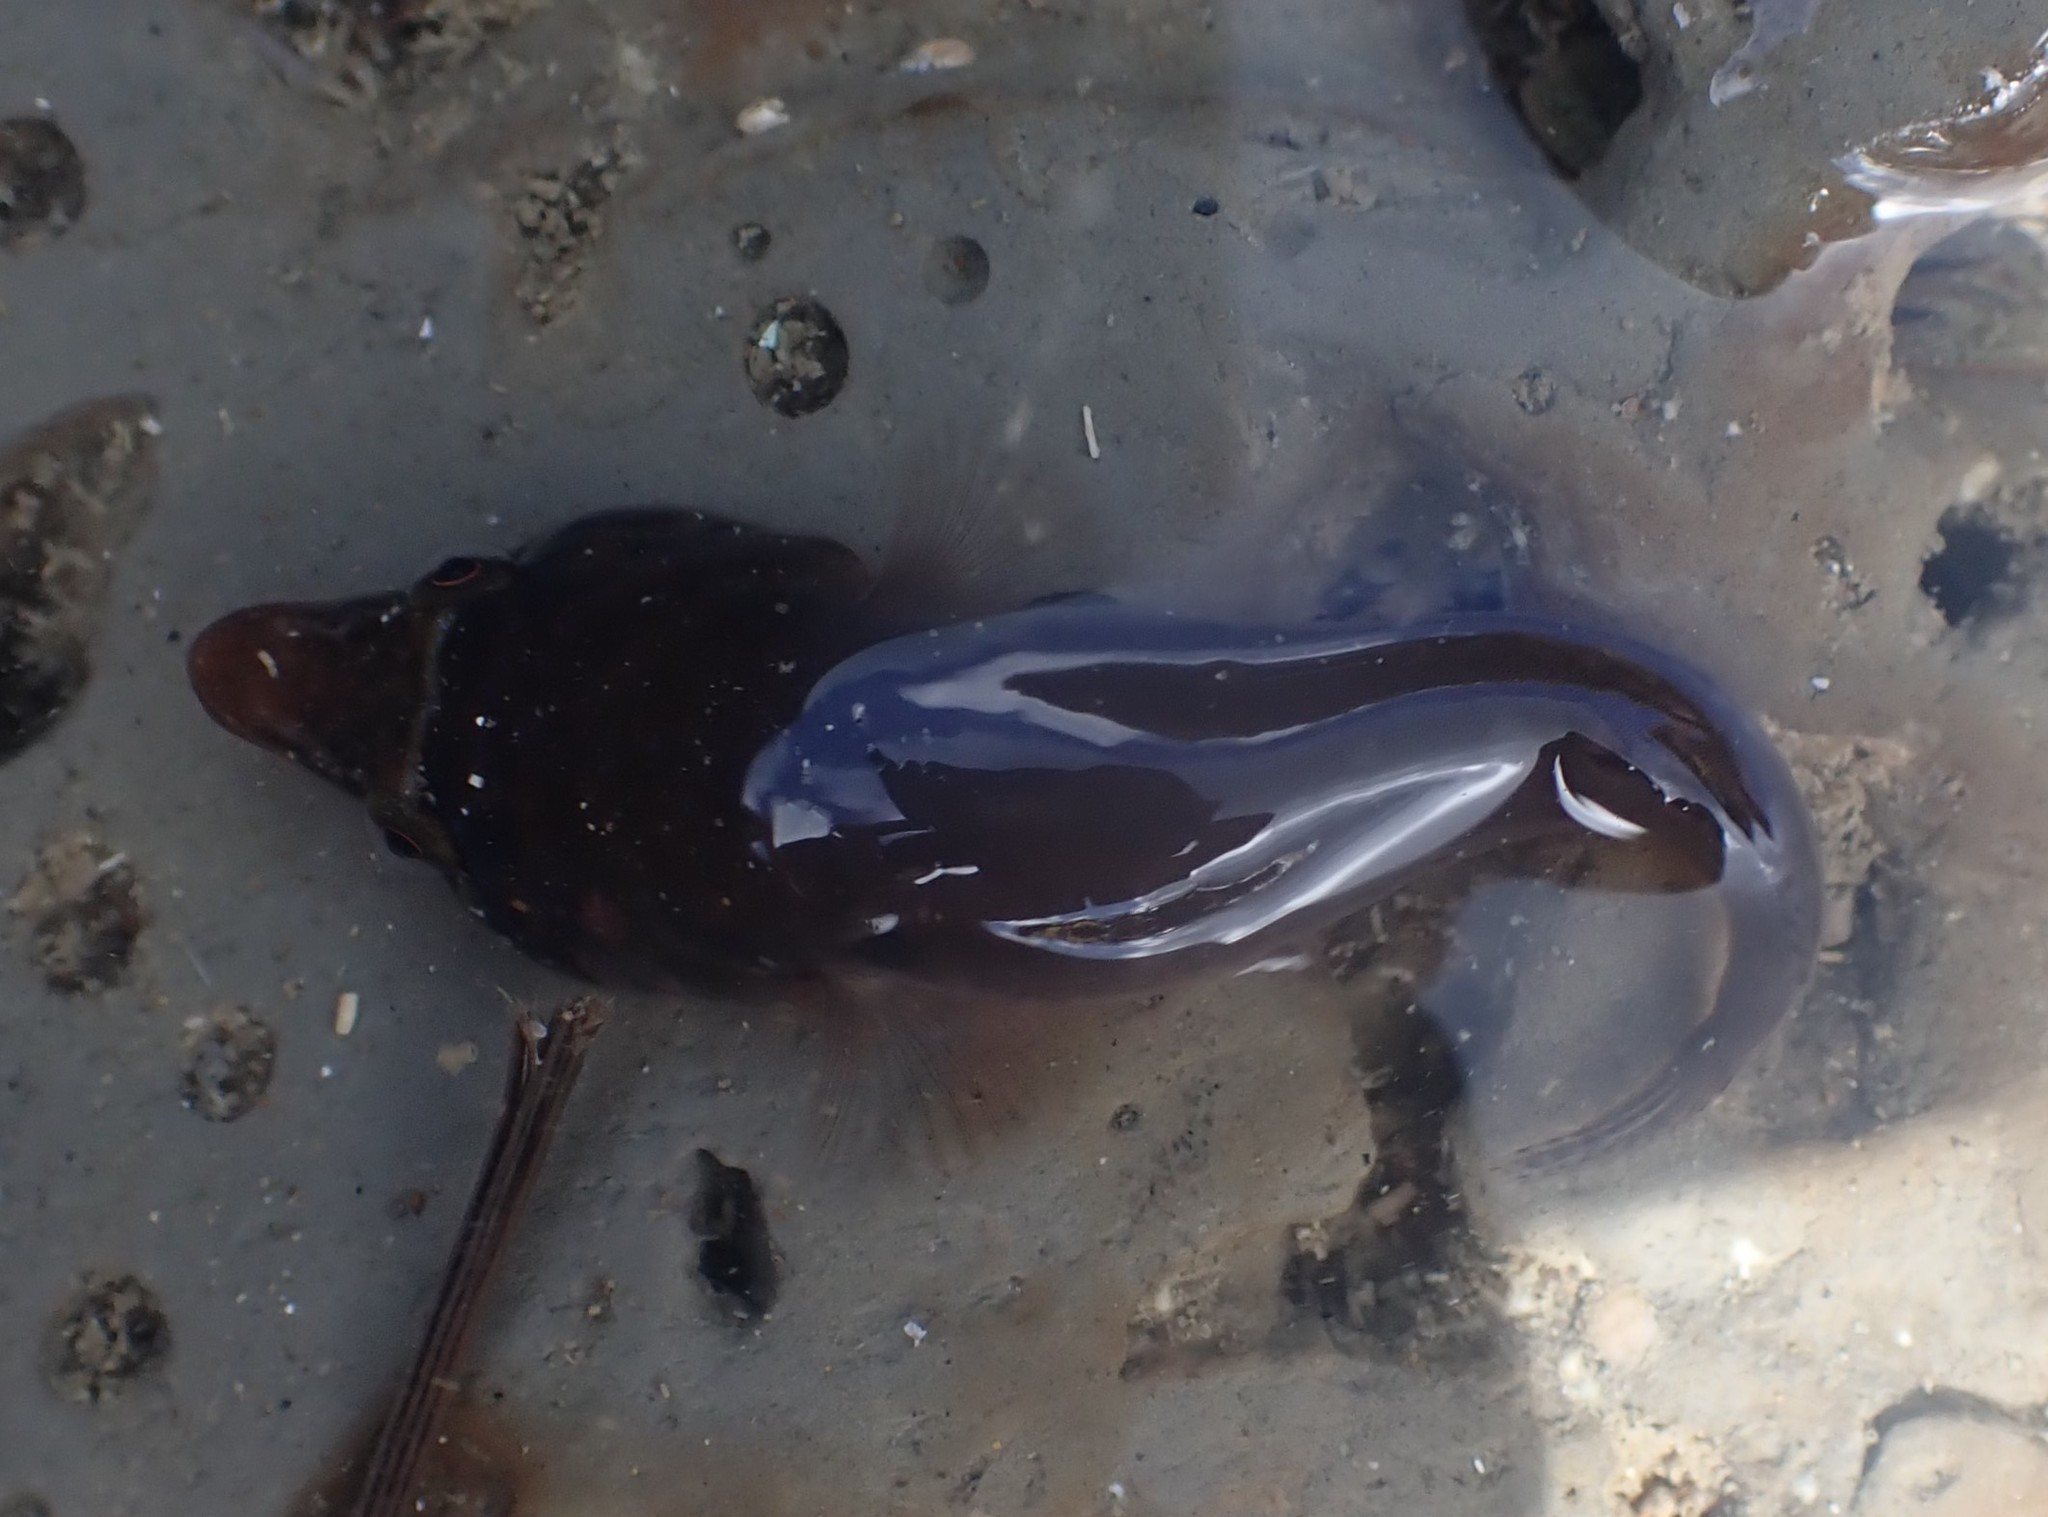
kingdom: Animalia
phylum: Chordata
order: Gobiesociformes
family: Gobiesocidae
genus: Dellichthys
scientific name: Dellichthys morelandi
